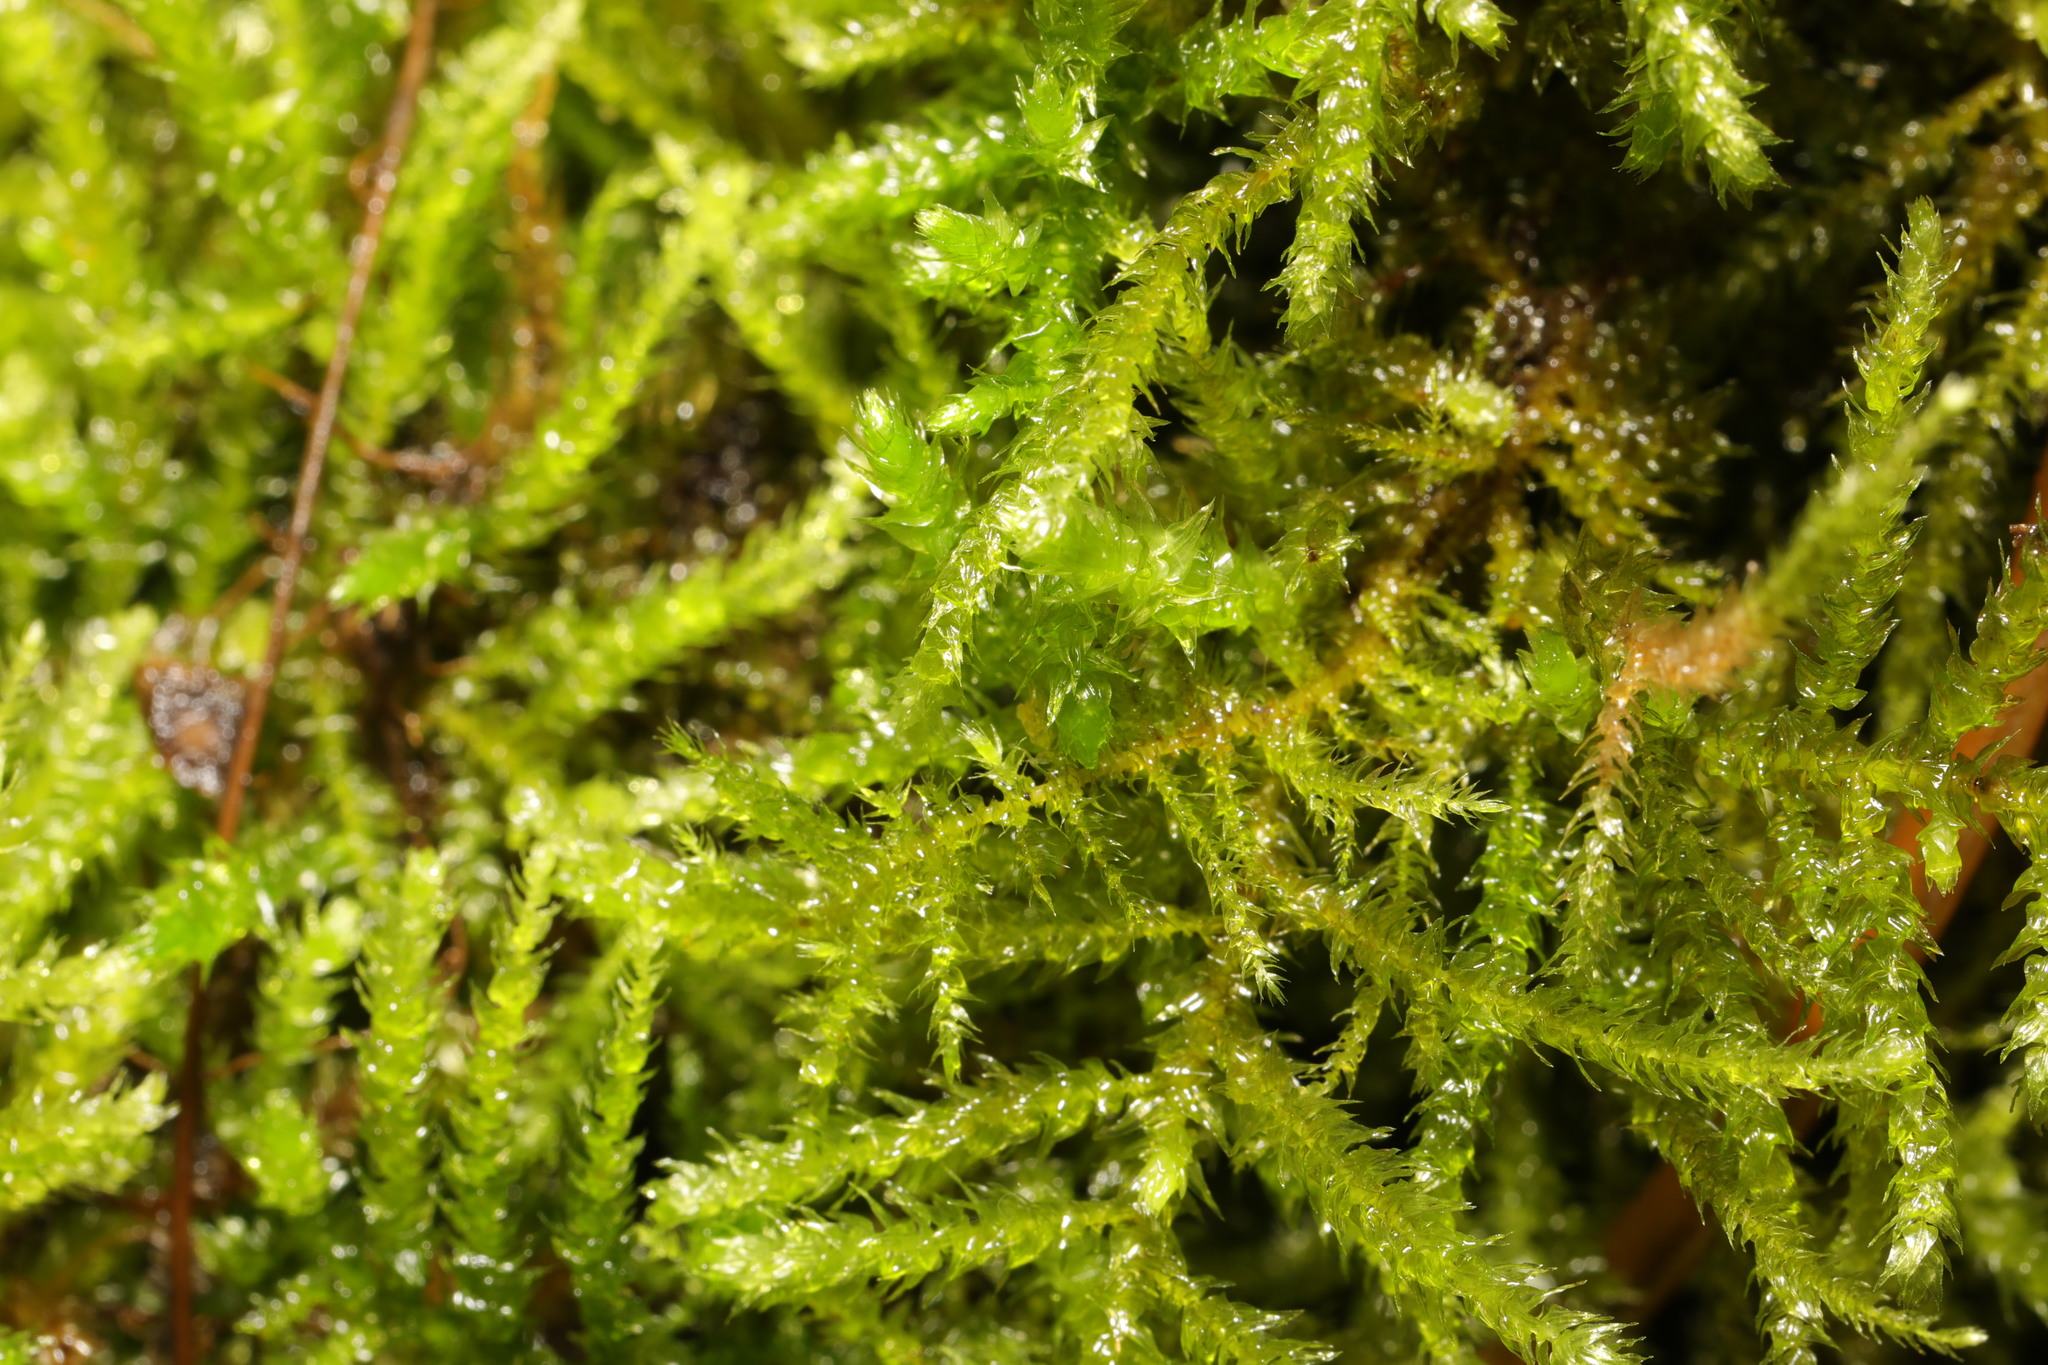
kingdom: Plantae
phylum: Bryophyta
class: Bryopsida
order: Hypnales
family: Brachytheciaceae
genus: Kindbergia
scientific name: Kindbergia praelonga
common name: Slender beaked moss
